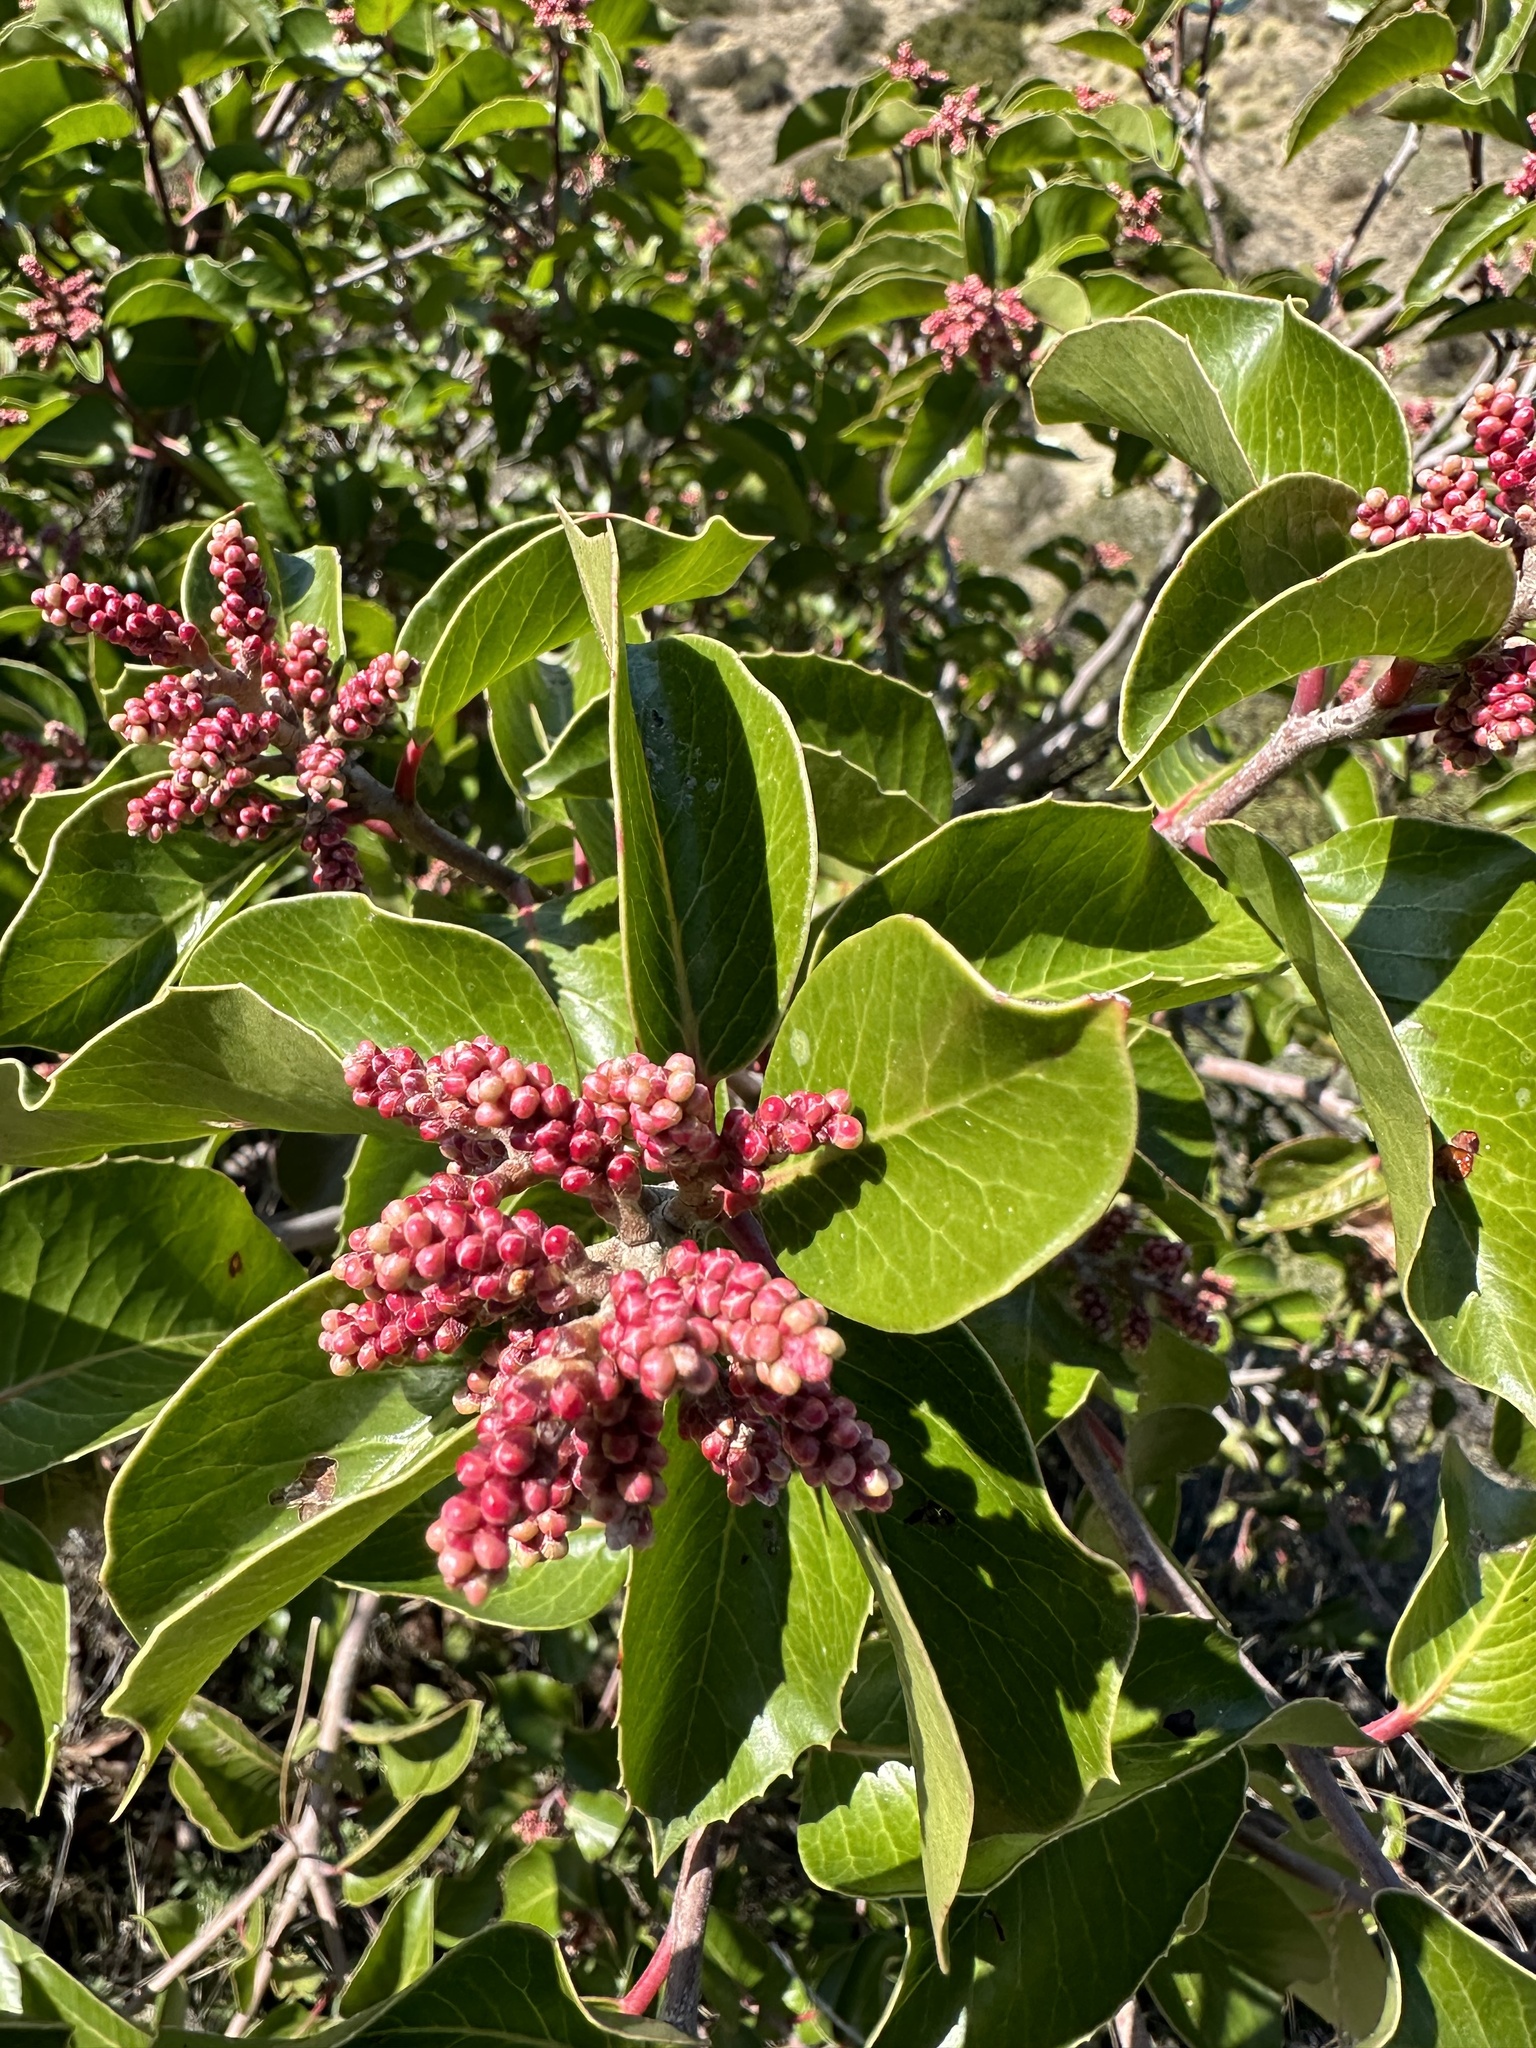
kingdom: Plantae
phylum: Tracheophyta
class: Magnoliopsida
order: Sapindales
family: Anacardiaceae
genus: Rhus
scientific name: Rhus ovata
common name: Sugar sumac
